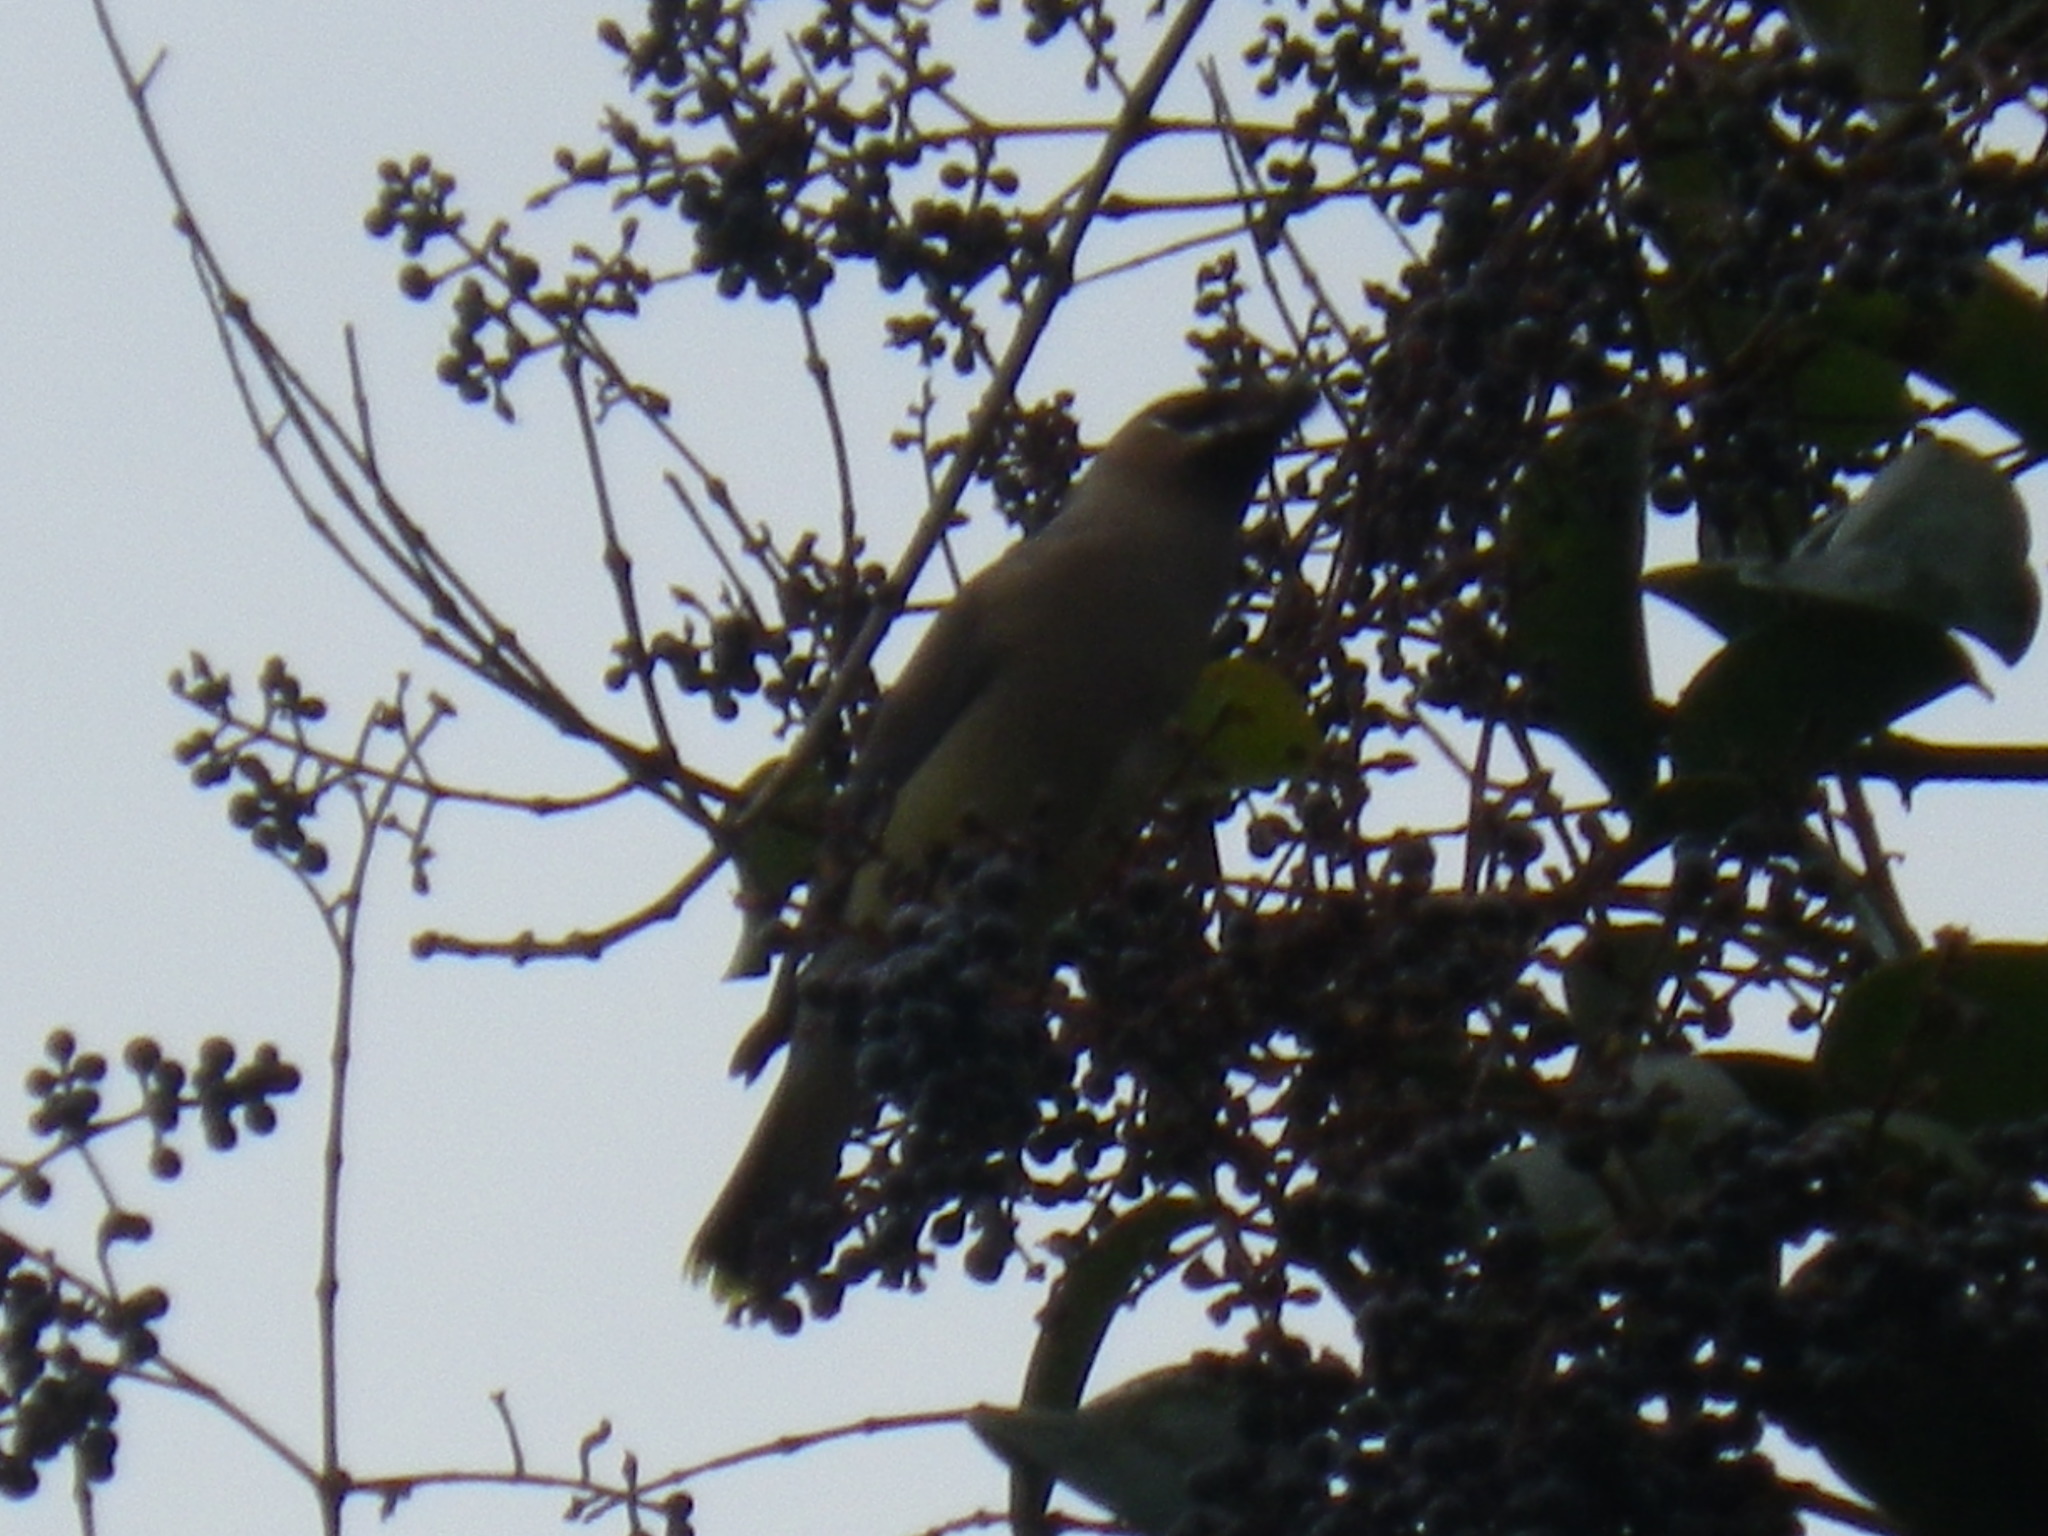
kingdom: Animalia
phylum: Chordata
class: Aves
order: Passeriformes
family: Bombycillidae
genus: Bombycilla
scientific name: Bombycilla cedrorum
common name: Cedar waxwing
